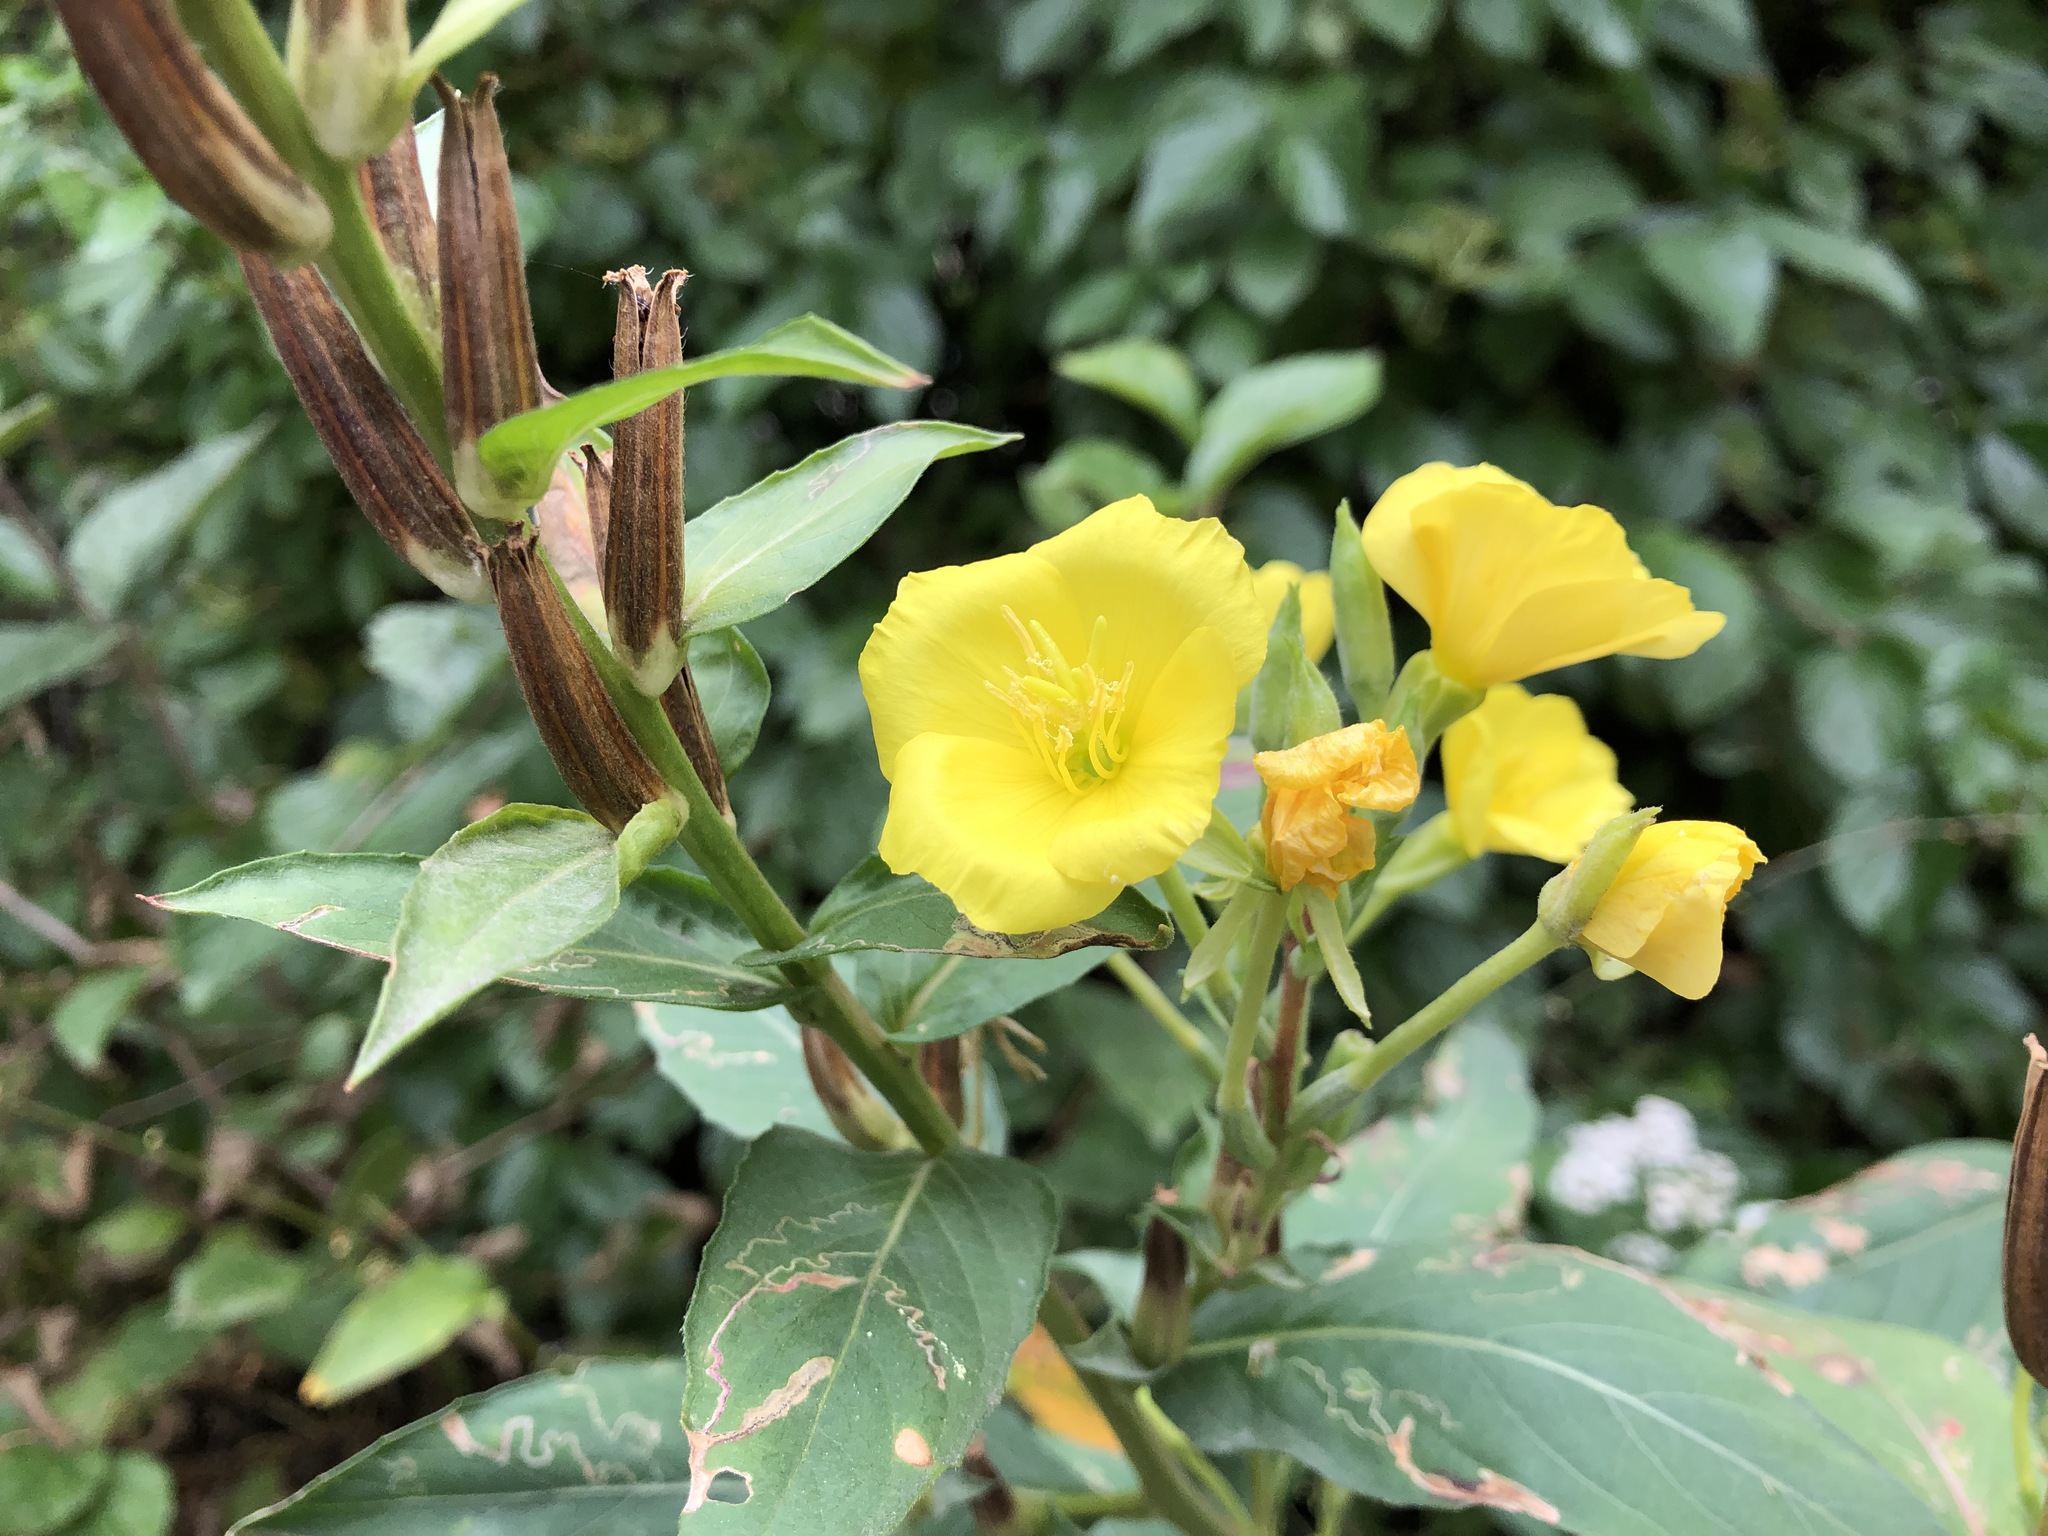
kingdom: Plantae
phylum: Tracheophyta
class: Magnoliopsida
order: Myrtales
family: Onagraceae
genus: Oenothera
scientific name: Oenothera biennis
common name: Common evening-primrose
